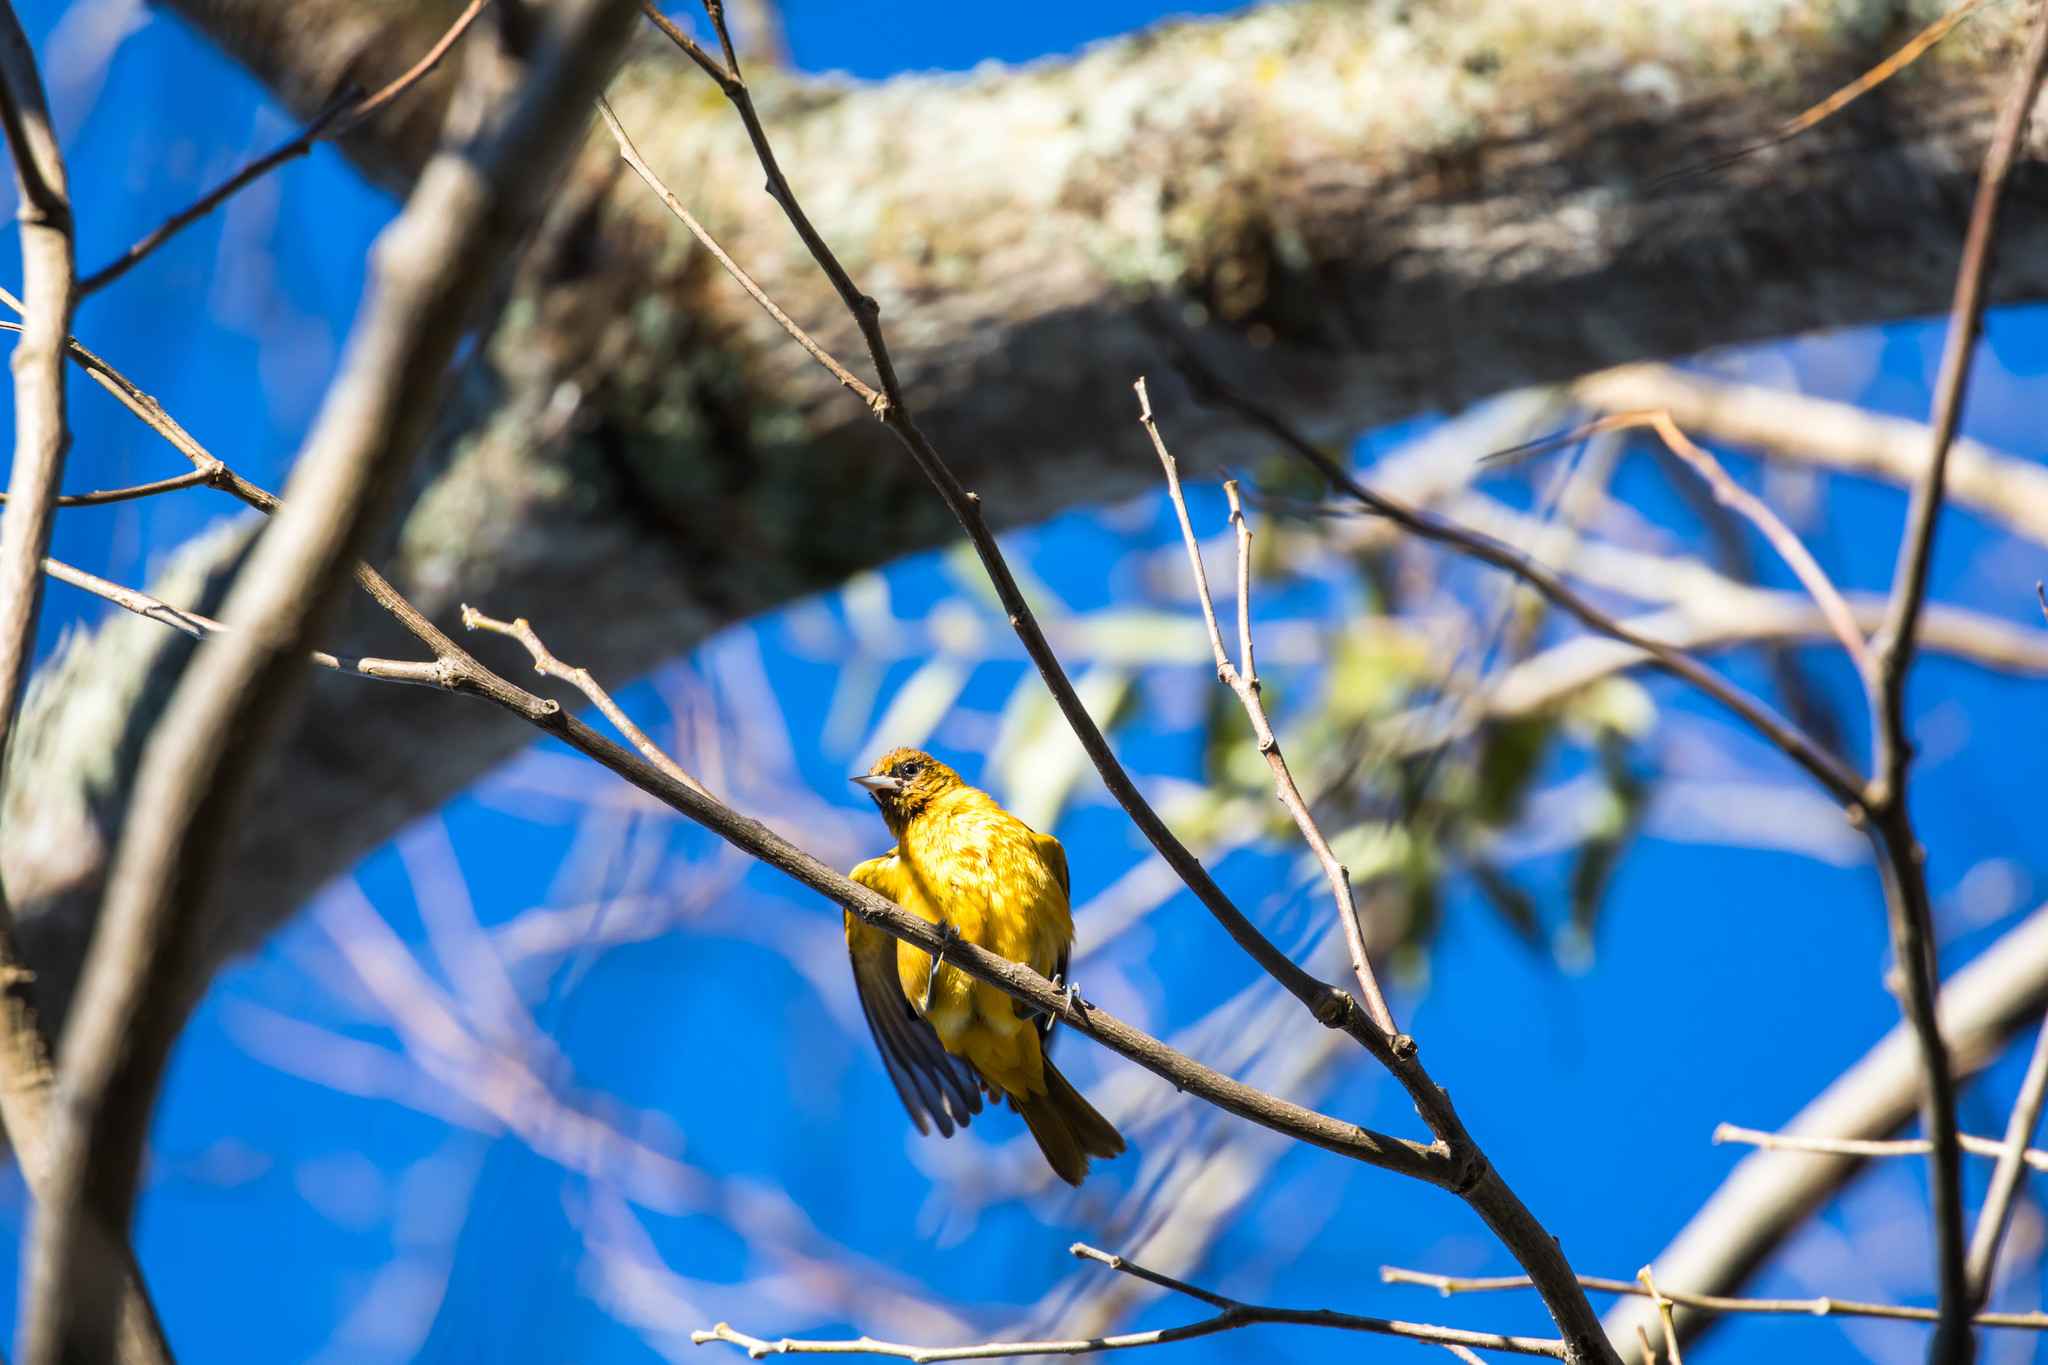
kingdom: Animalia
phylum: Chordata
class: Aves
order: Passeriformes
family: Icteridae
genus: Icterus
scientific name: Icterus galbula
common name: Baltimore oriole
